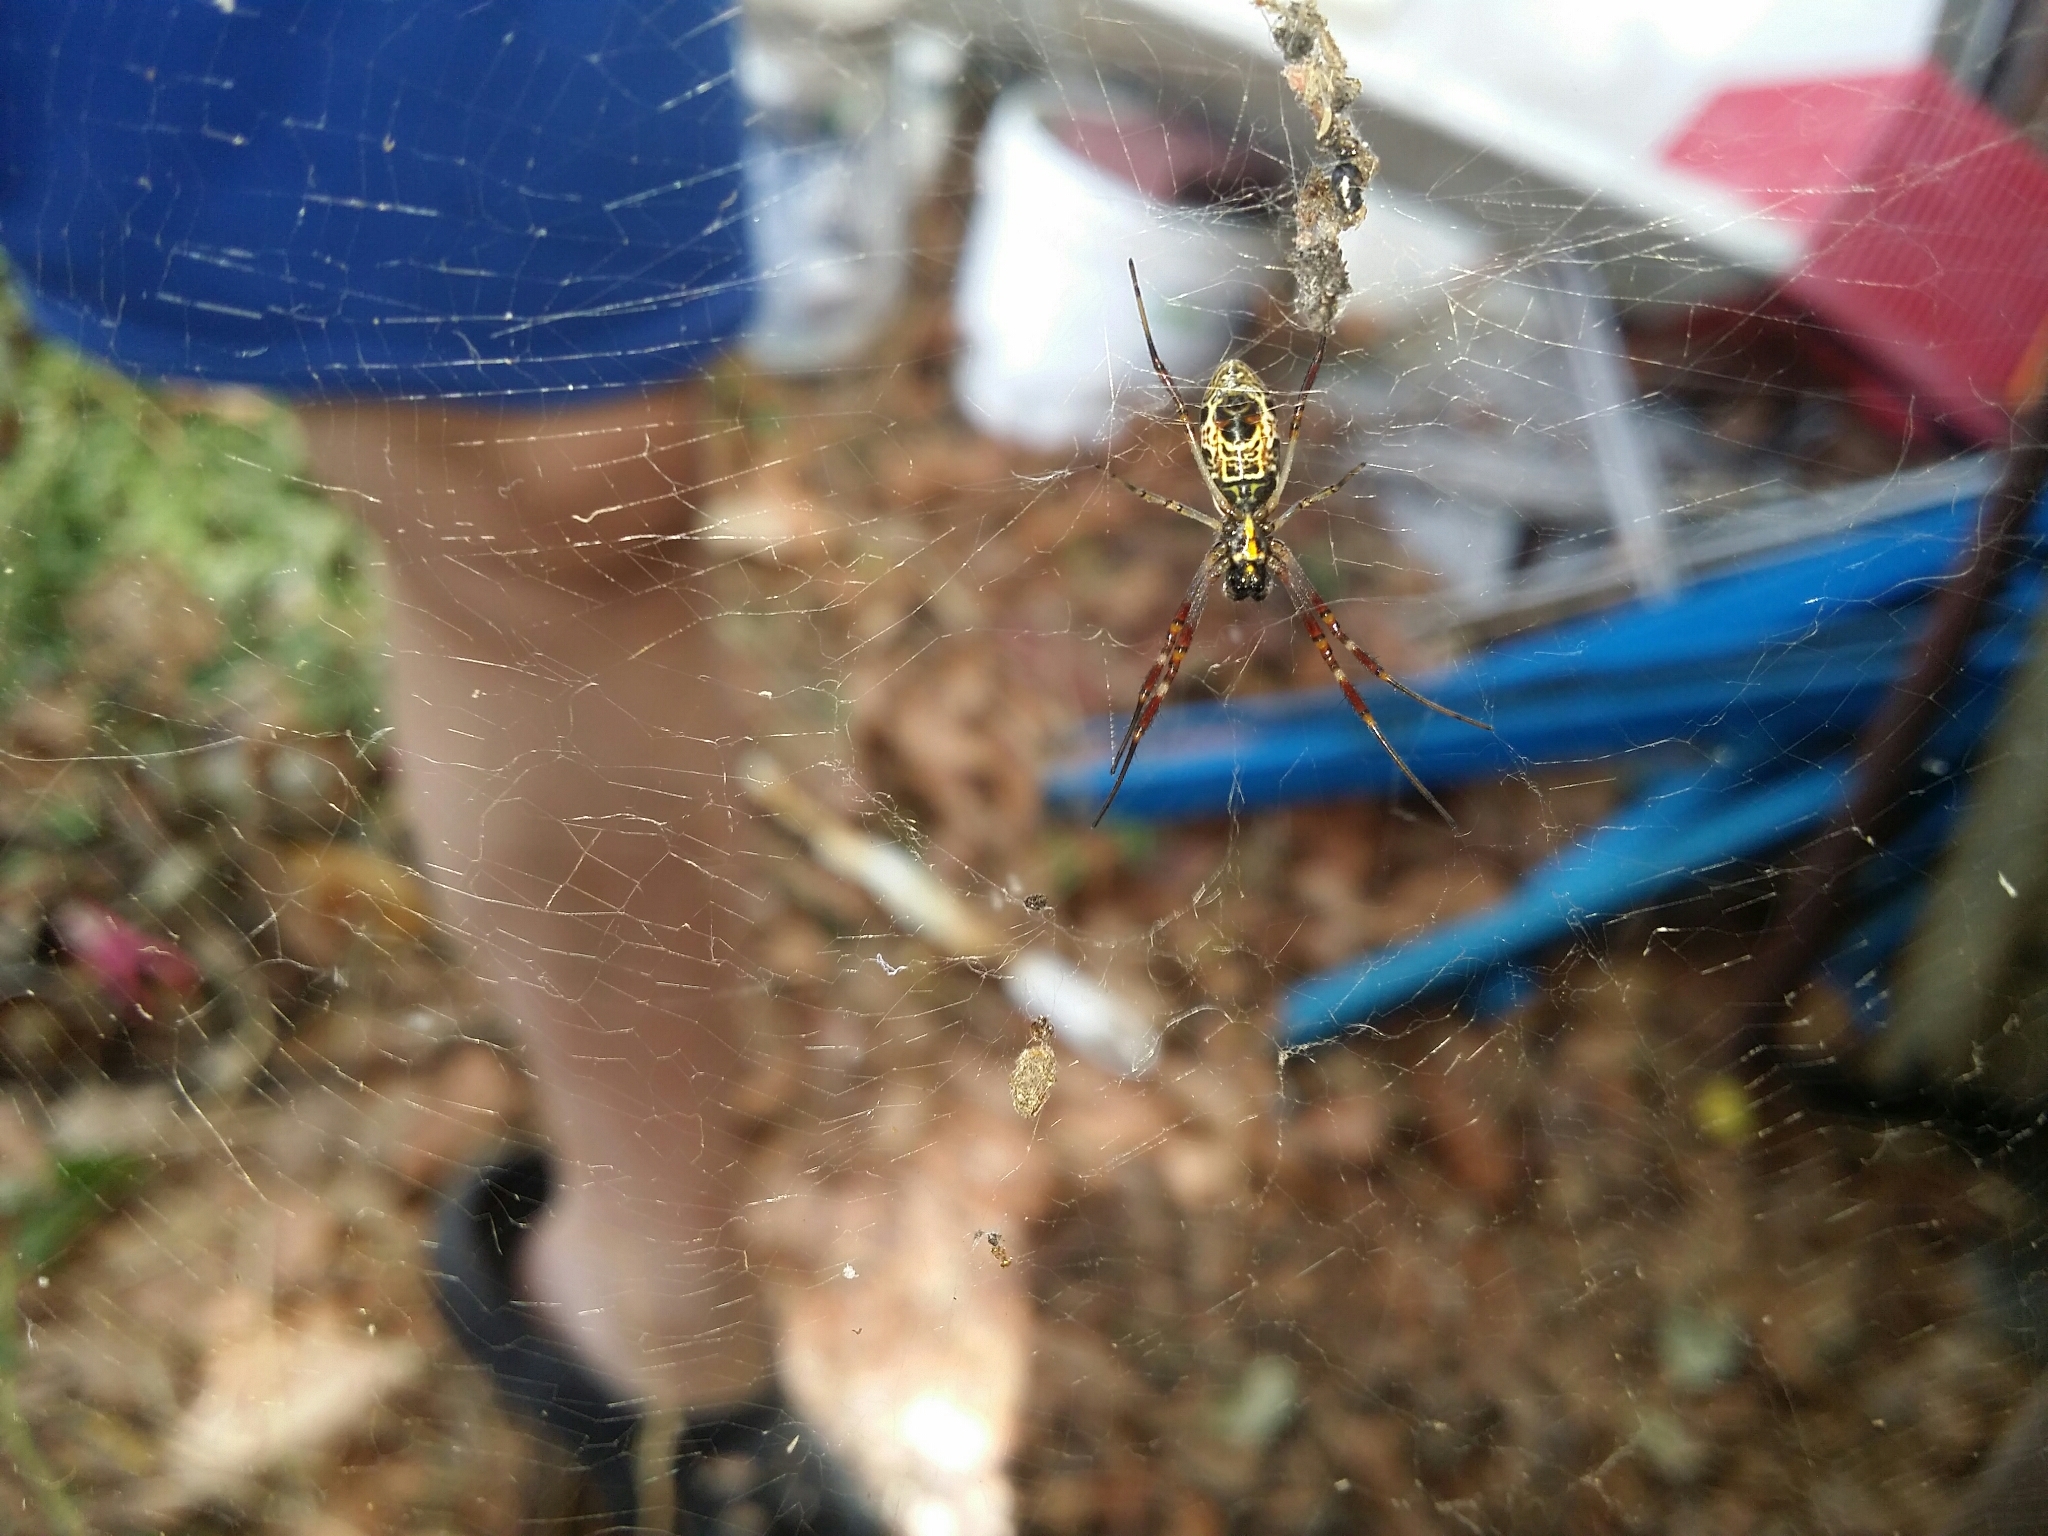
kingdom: Animalia
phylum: Arthropoda
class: Arachnida
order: Araneae
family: Araneidae
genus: Trichonephila
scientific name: Trichonephila edulis
